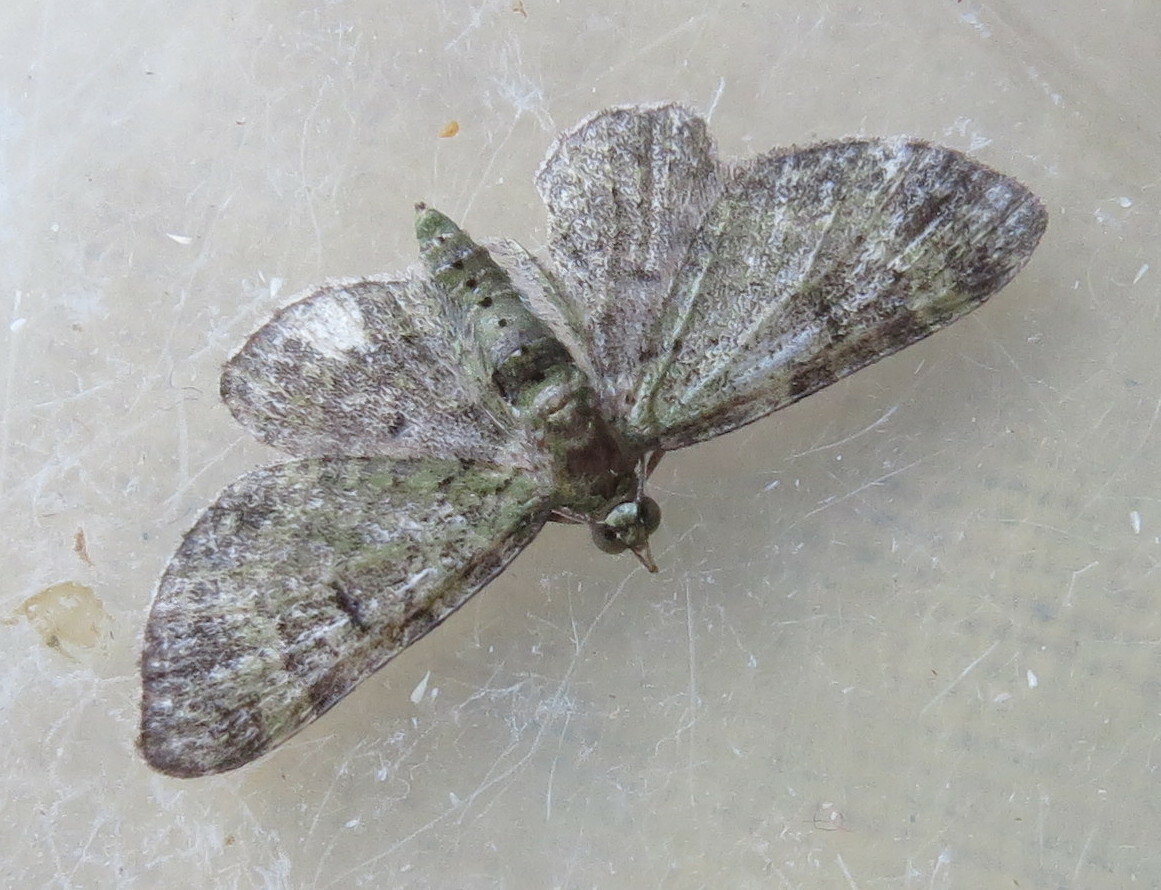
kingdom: Animalia
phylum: Arthropoda
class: Insecta
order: Lepidoptera
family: Geometridae
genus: Pasiphila
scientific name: Pasiphila rectangulata
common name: Green pug
